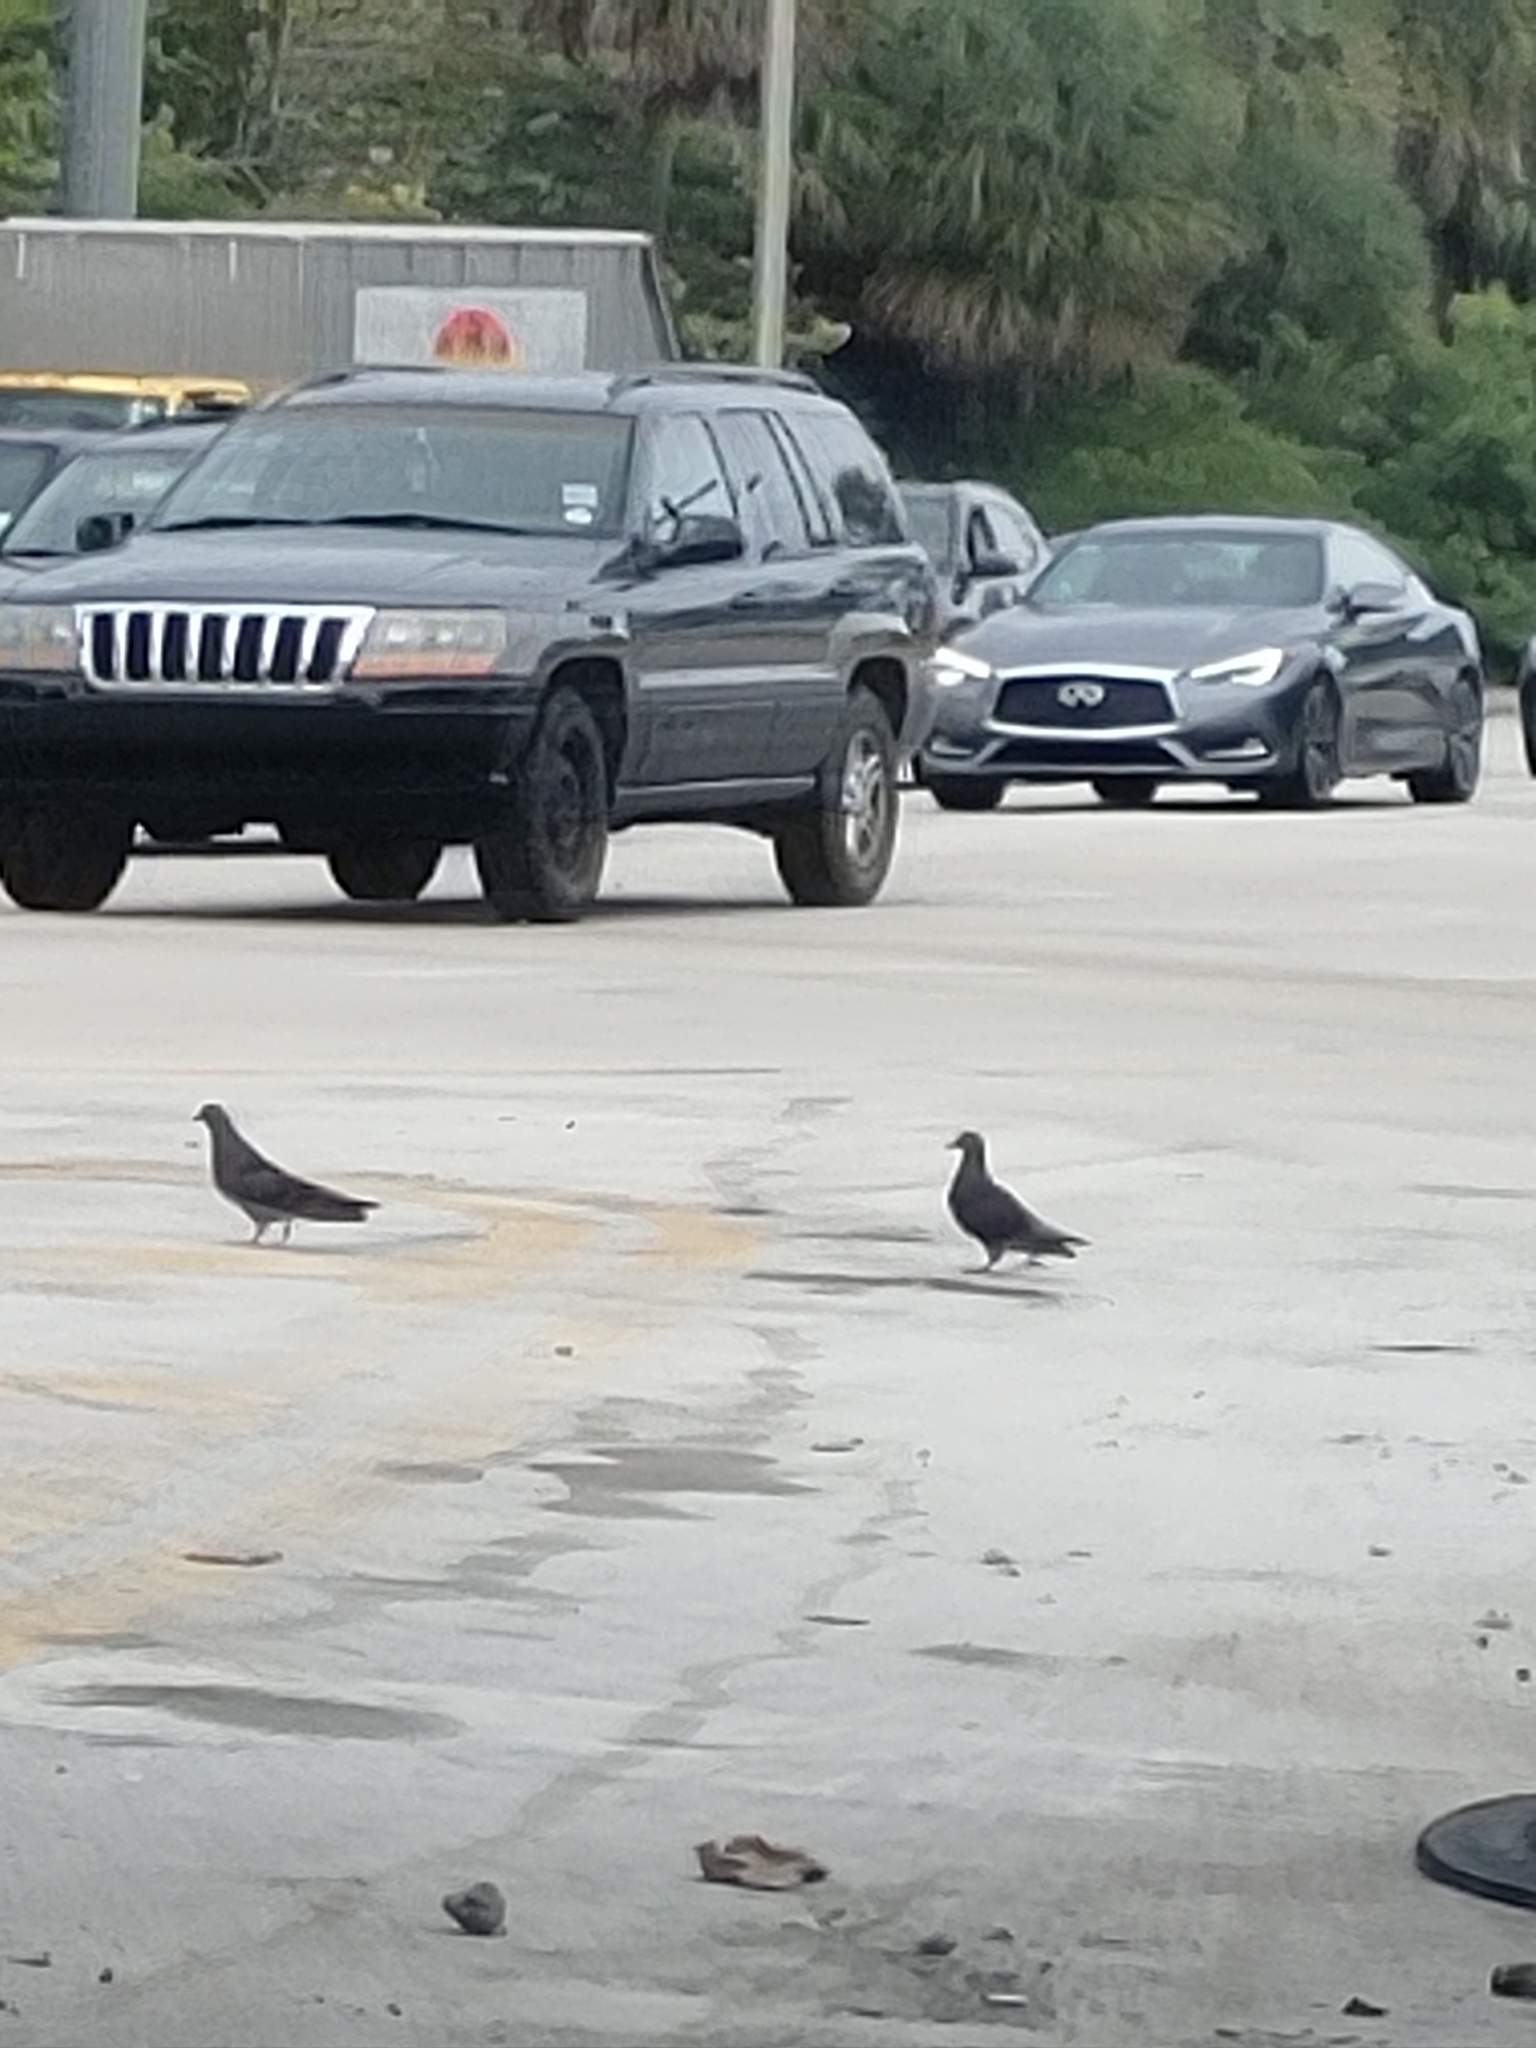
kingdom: Animalia
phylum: Chordata
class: Aves
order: Columbiformes
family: Columbidae
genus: Columba
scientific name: Columba livia
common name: Rock pigeon
